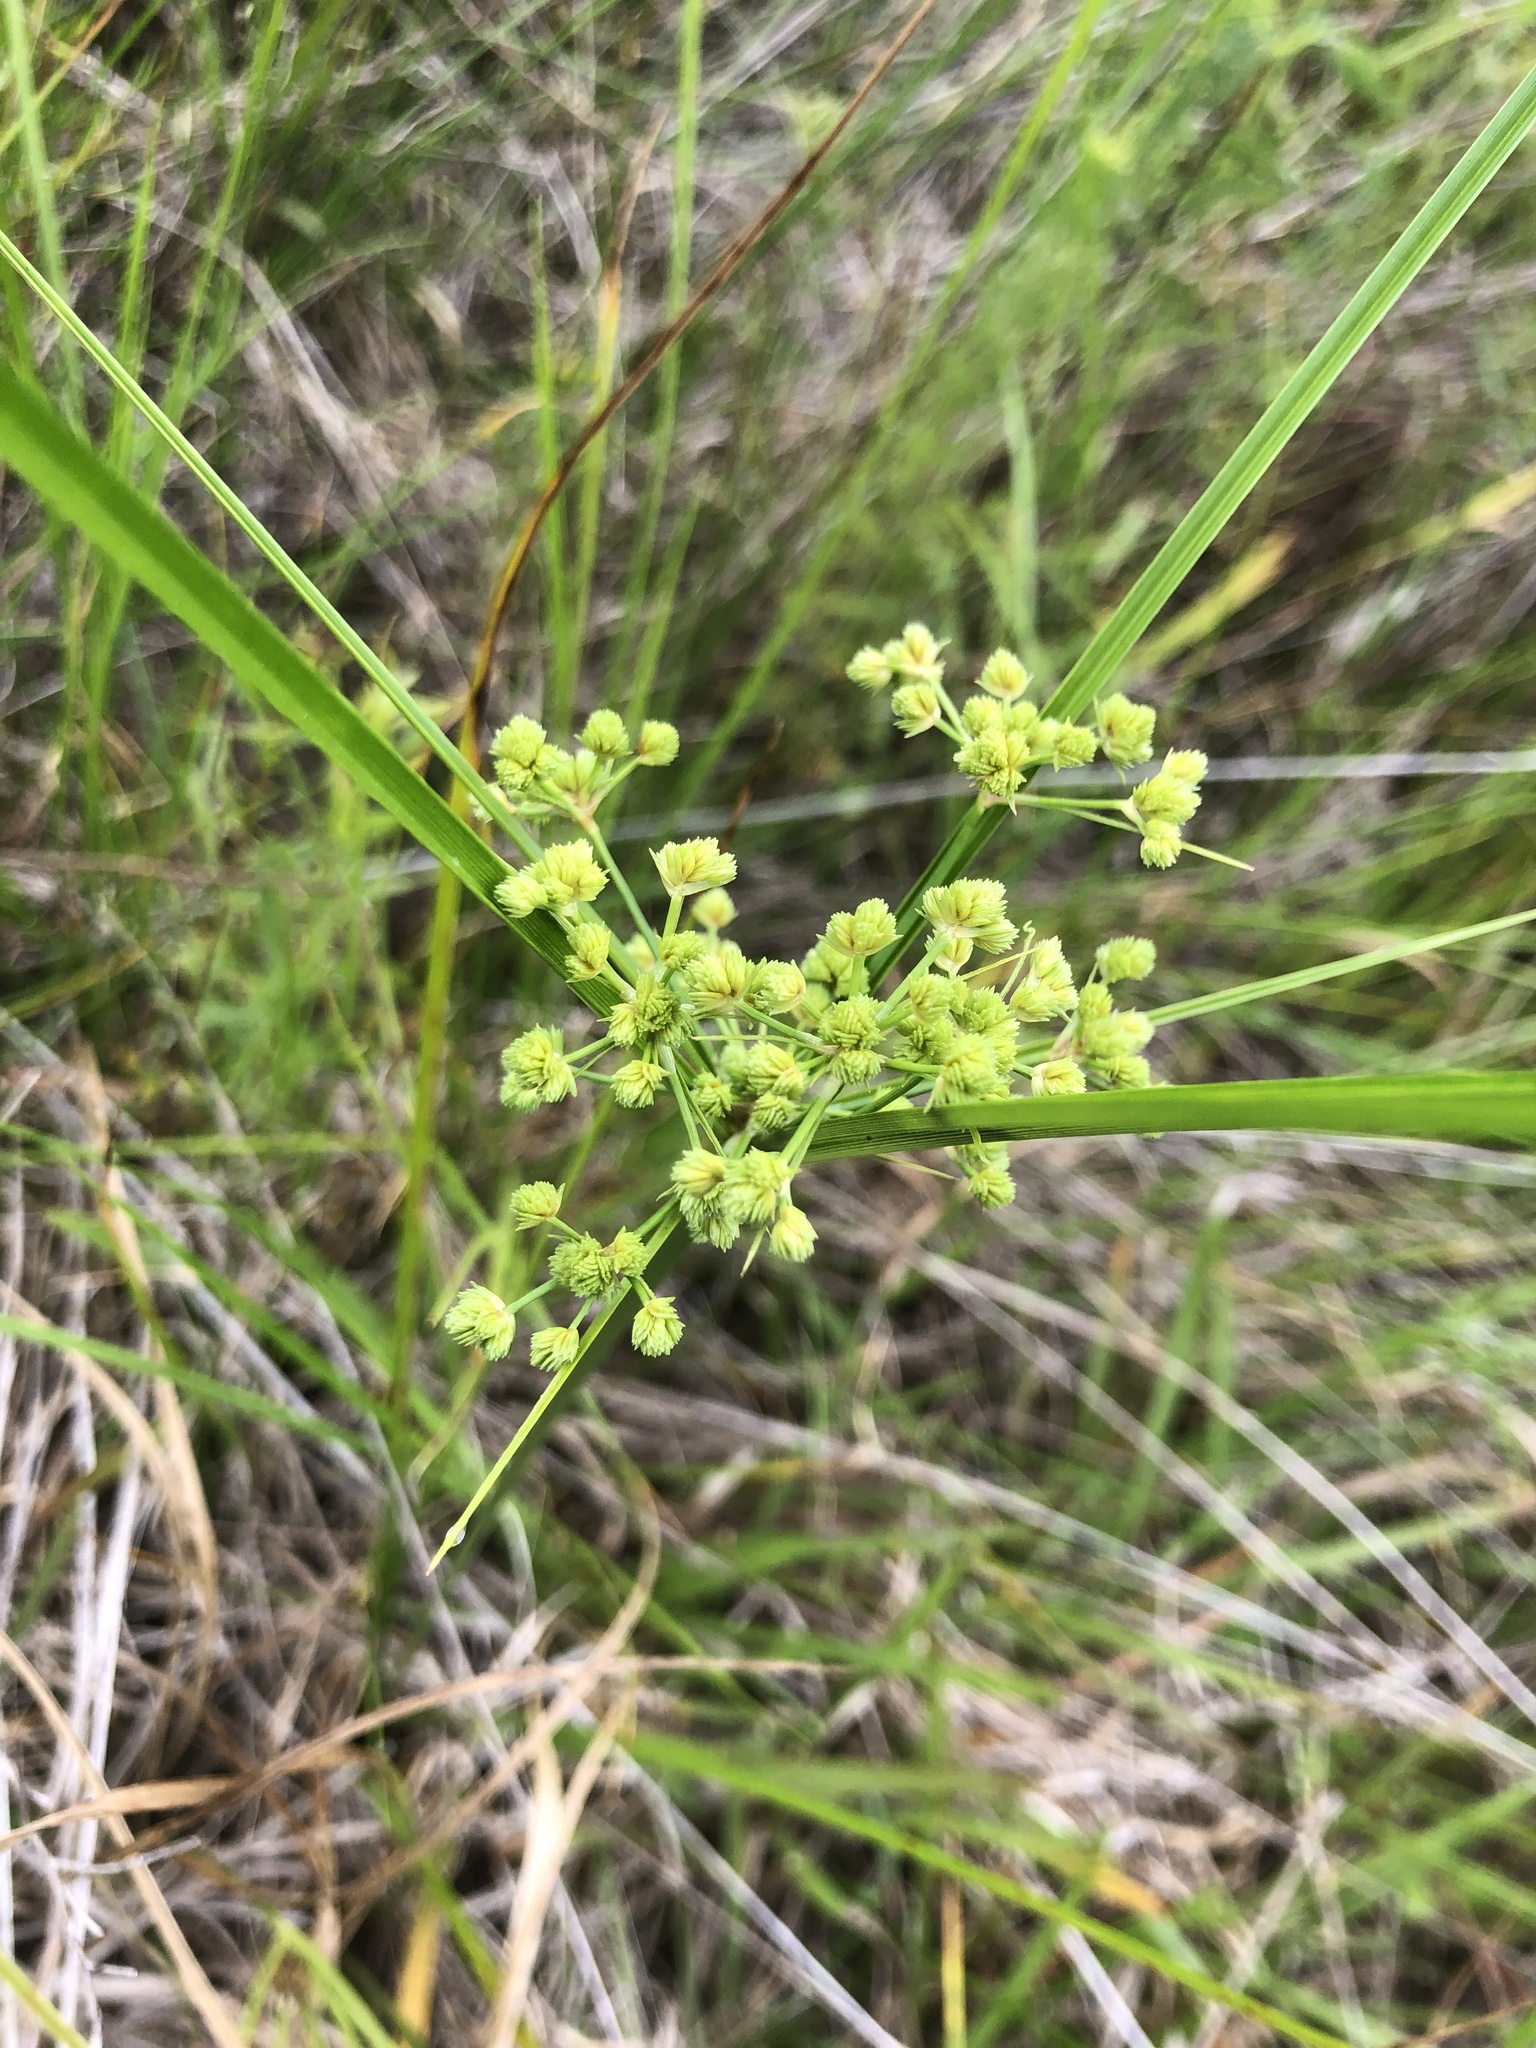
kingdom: Plantae
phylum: Tracheophyta
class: Liliopsida
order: Poales
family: Cyperaceae
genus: Cyperus
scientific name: Cyperus pseudovegetus
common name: Marsh flat sedge
